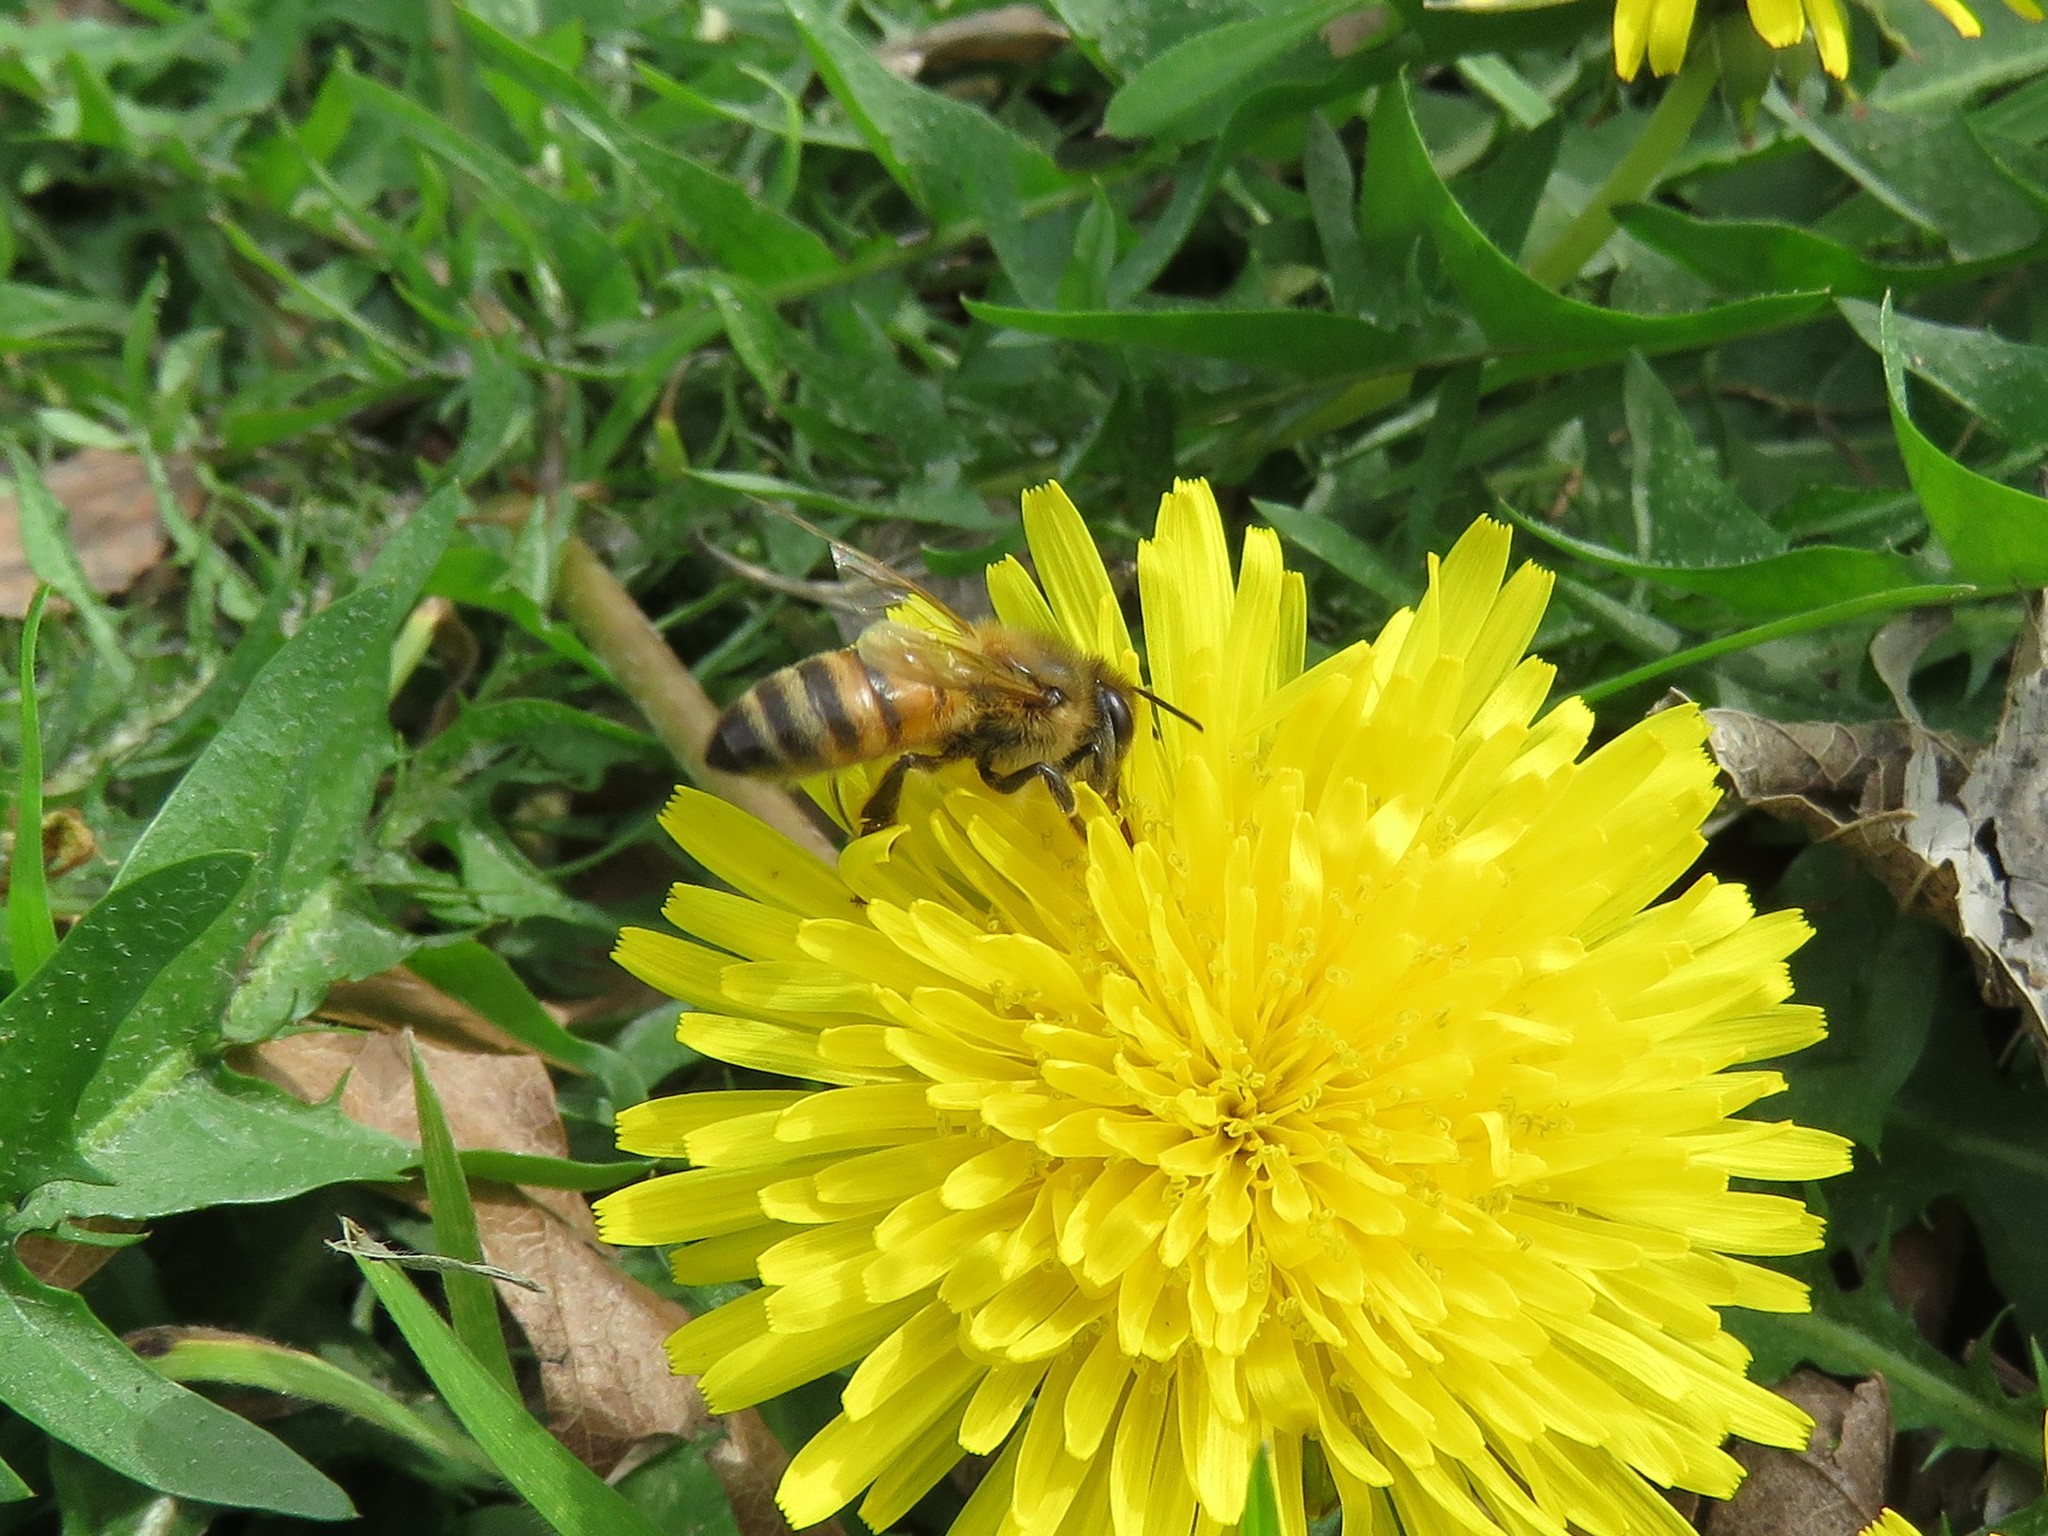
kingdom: Animalia
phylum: Arthropoda
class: Insecta
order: Hymenoptera
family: Apidae
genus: Apis
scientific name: Apis mellifera
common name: Honey bee
